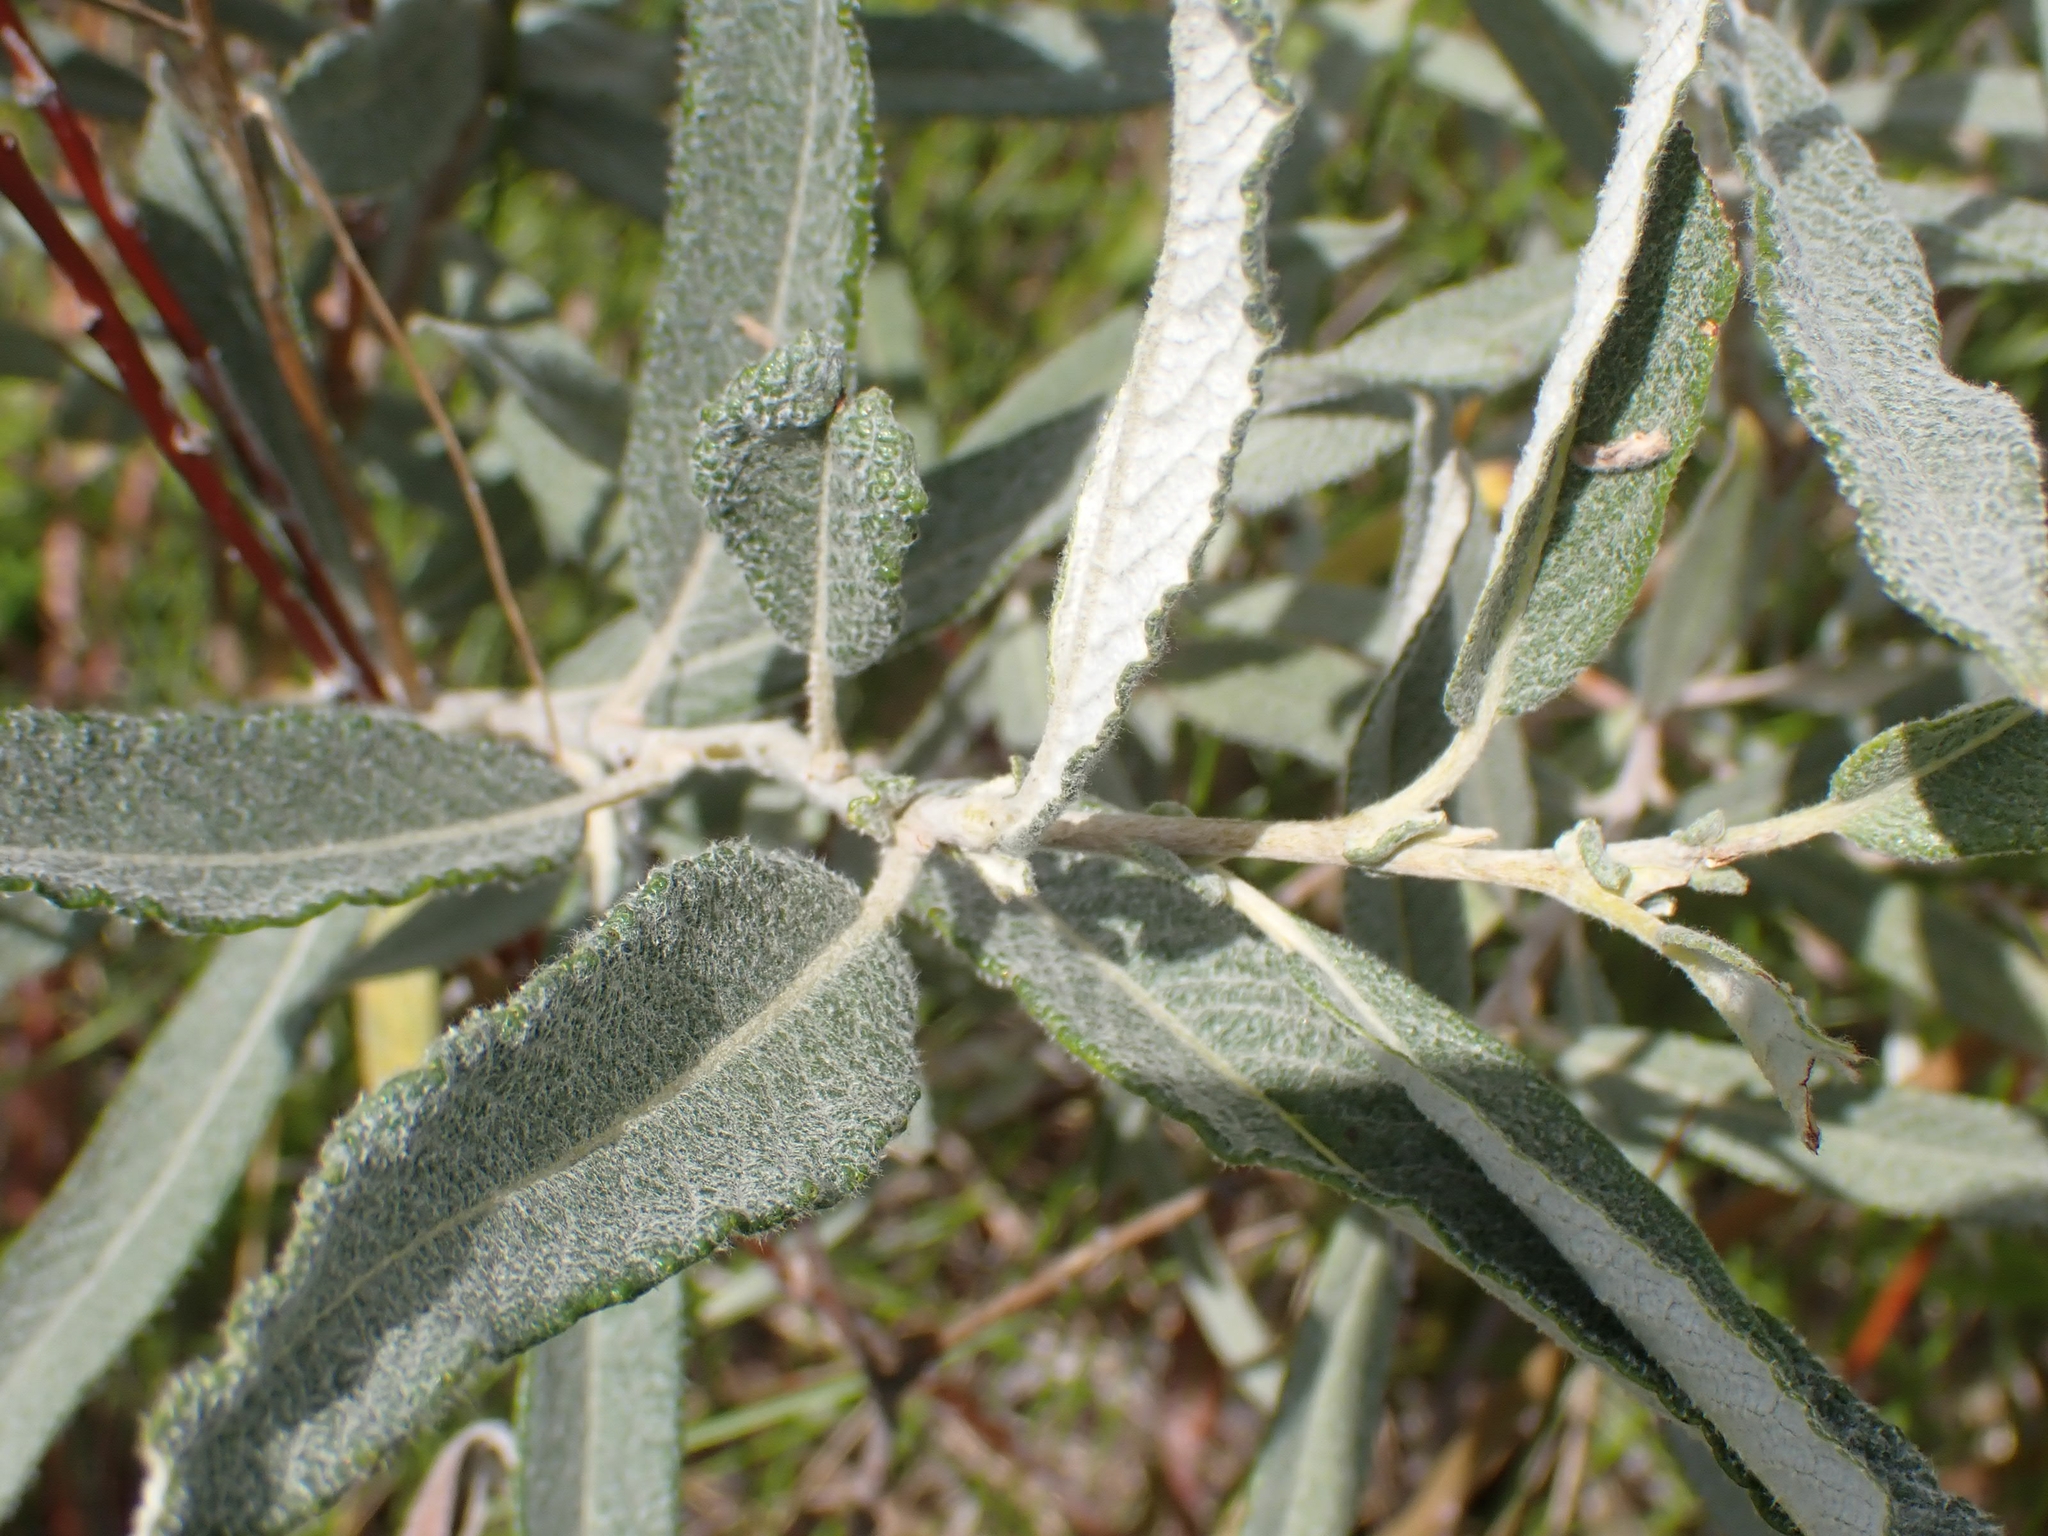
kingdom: Plantae
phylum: Tracheophyta
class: Magnoliopsida
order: Malpighiales
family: Salicaceae
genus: Salix
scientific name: Salix candida
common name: Hoary willow
